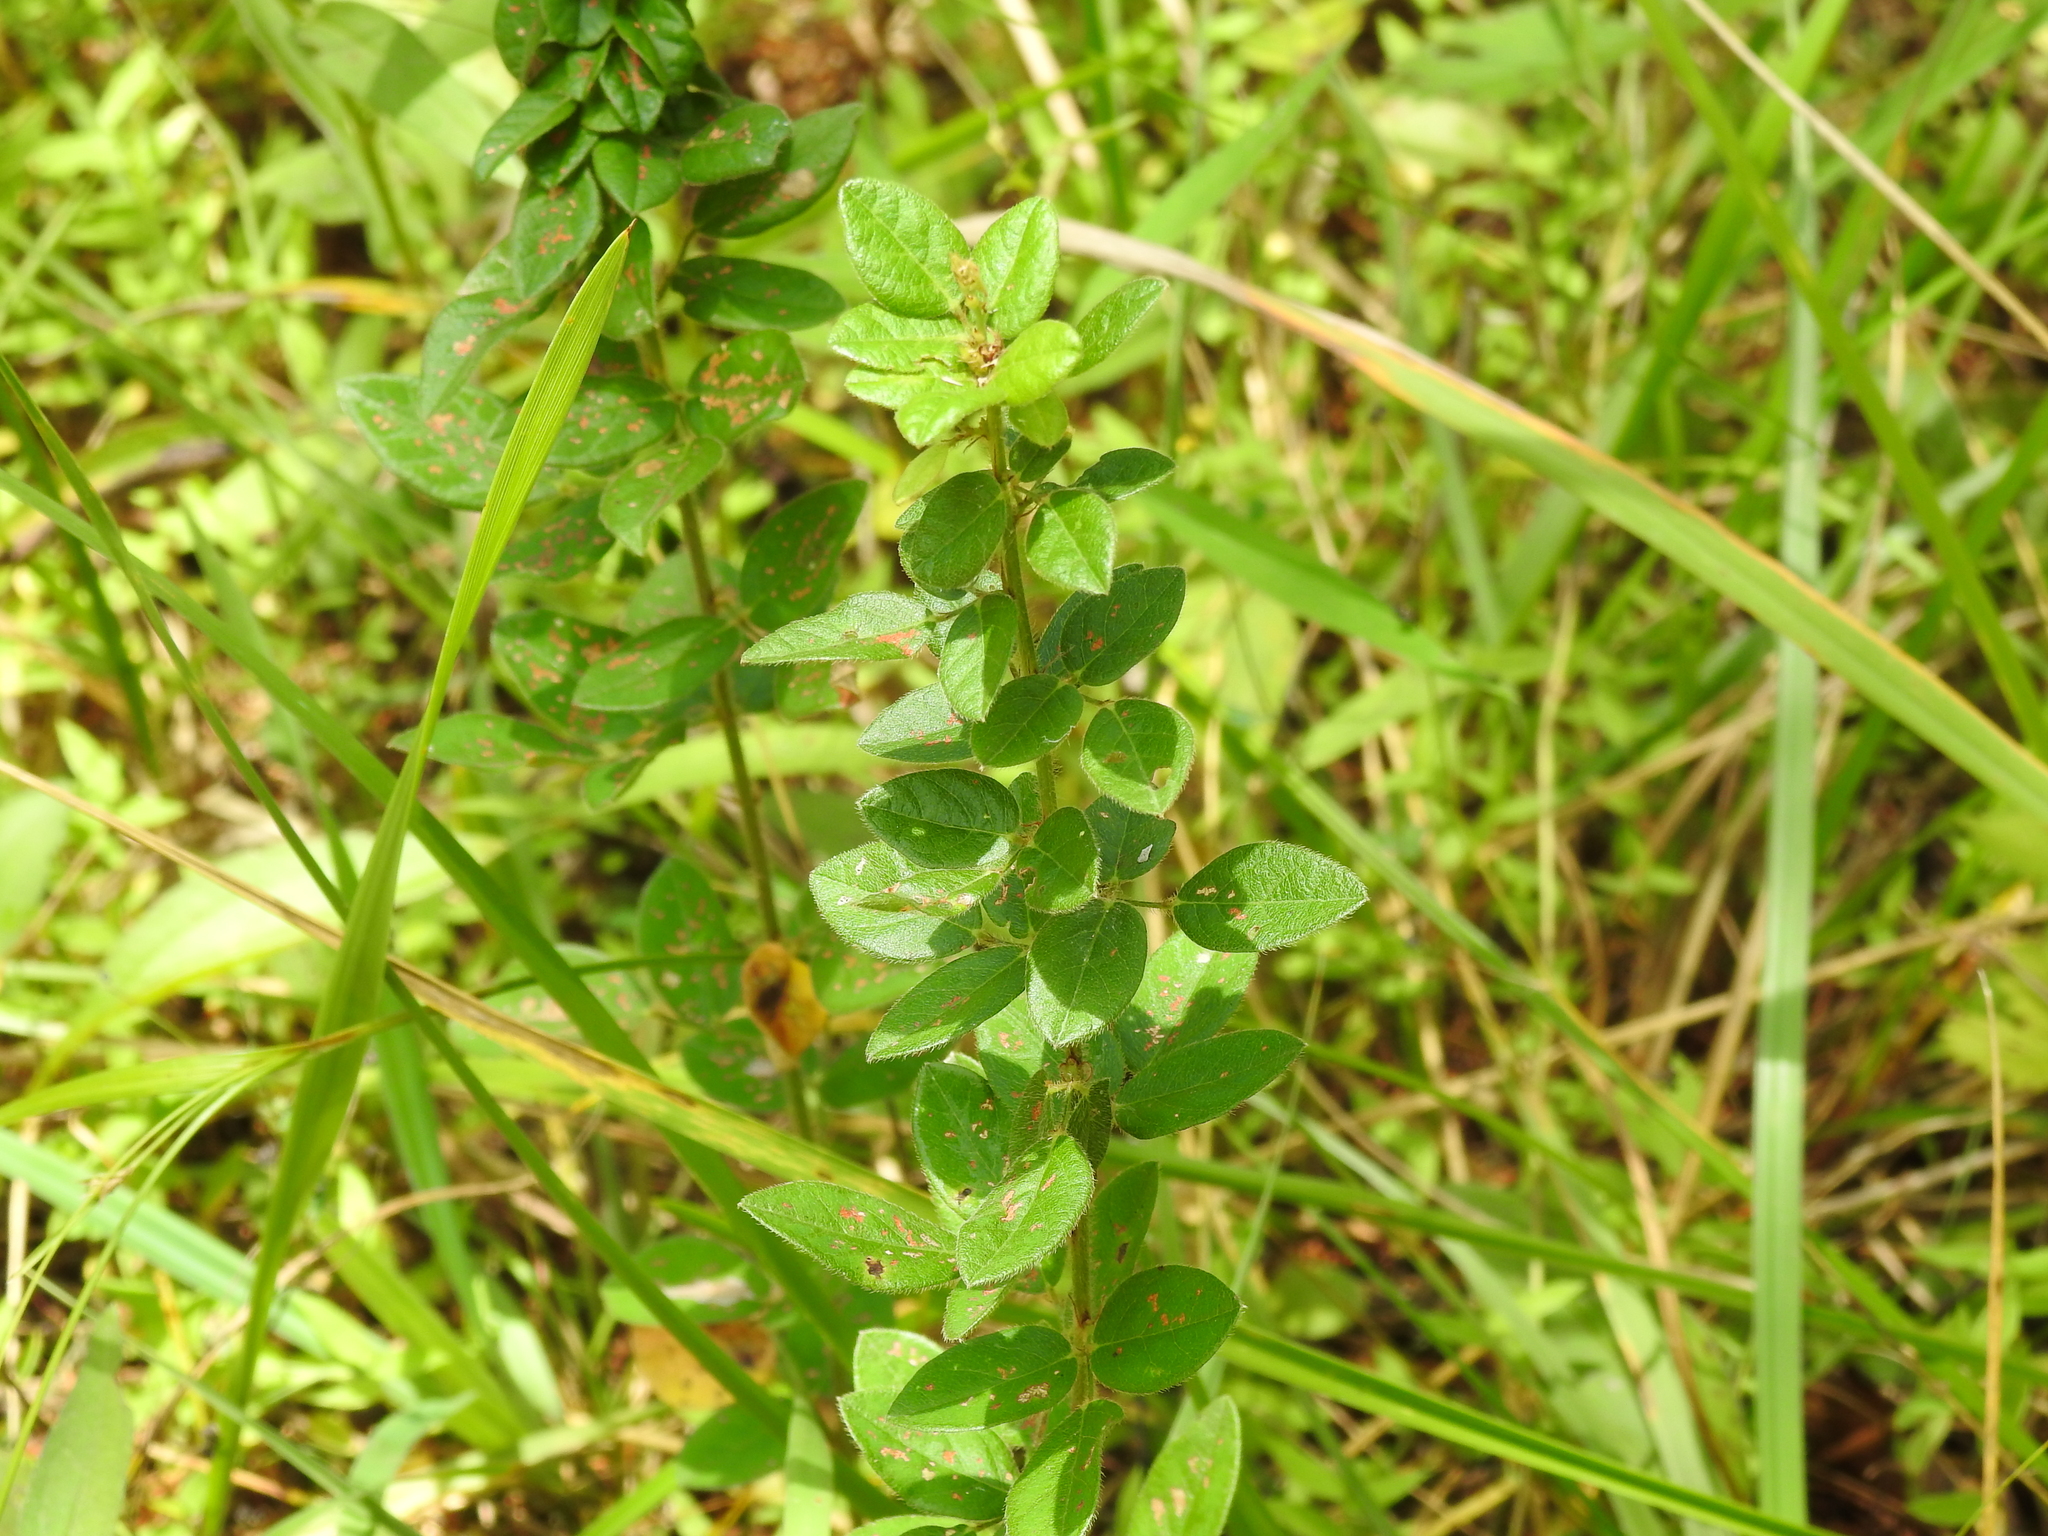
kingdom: Plantae
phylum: Tracheophyta
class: Magnoliopsida
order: Fabales
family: Fabaceae
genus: Desmodium
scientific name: Desmodium ciliare
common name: Hairy small-leaf ticktrefoil
